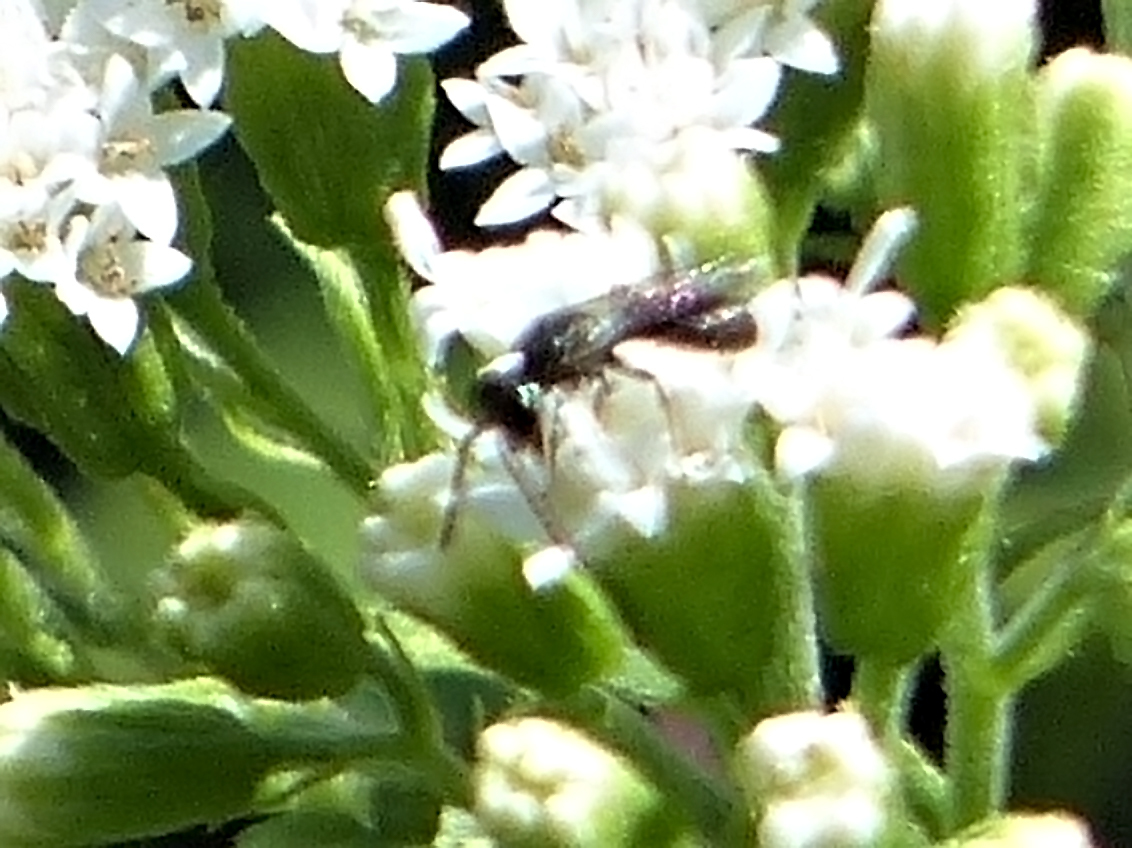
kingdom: Animalia
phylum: Arthropoda
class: Insecta
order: Hymenoptera
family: Halictidae
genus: Dialictus
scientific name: Dialictus
